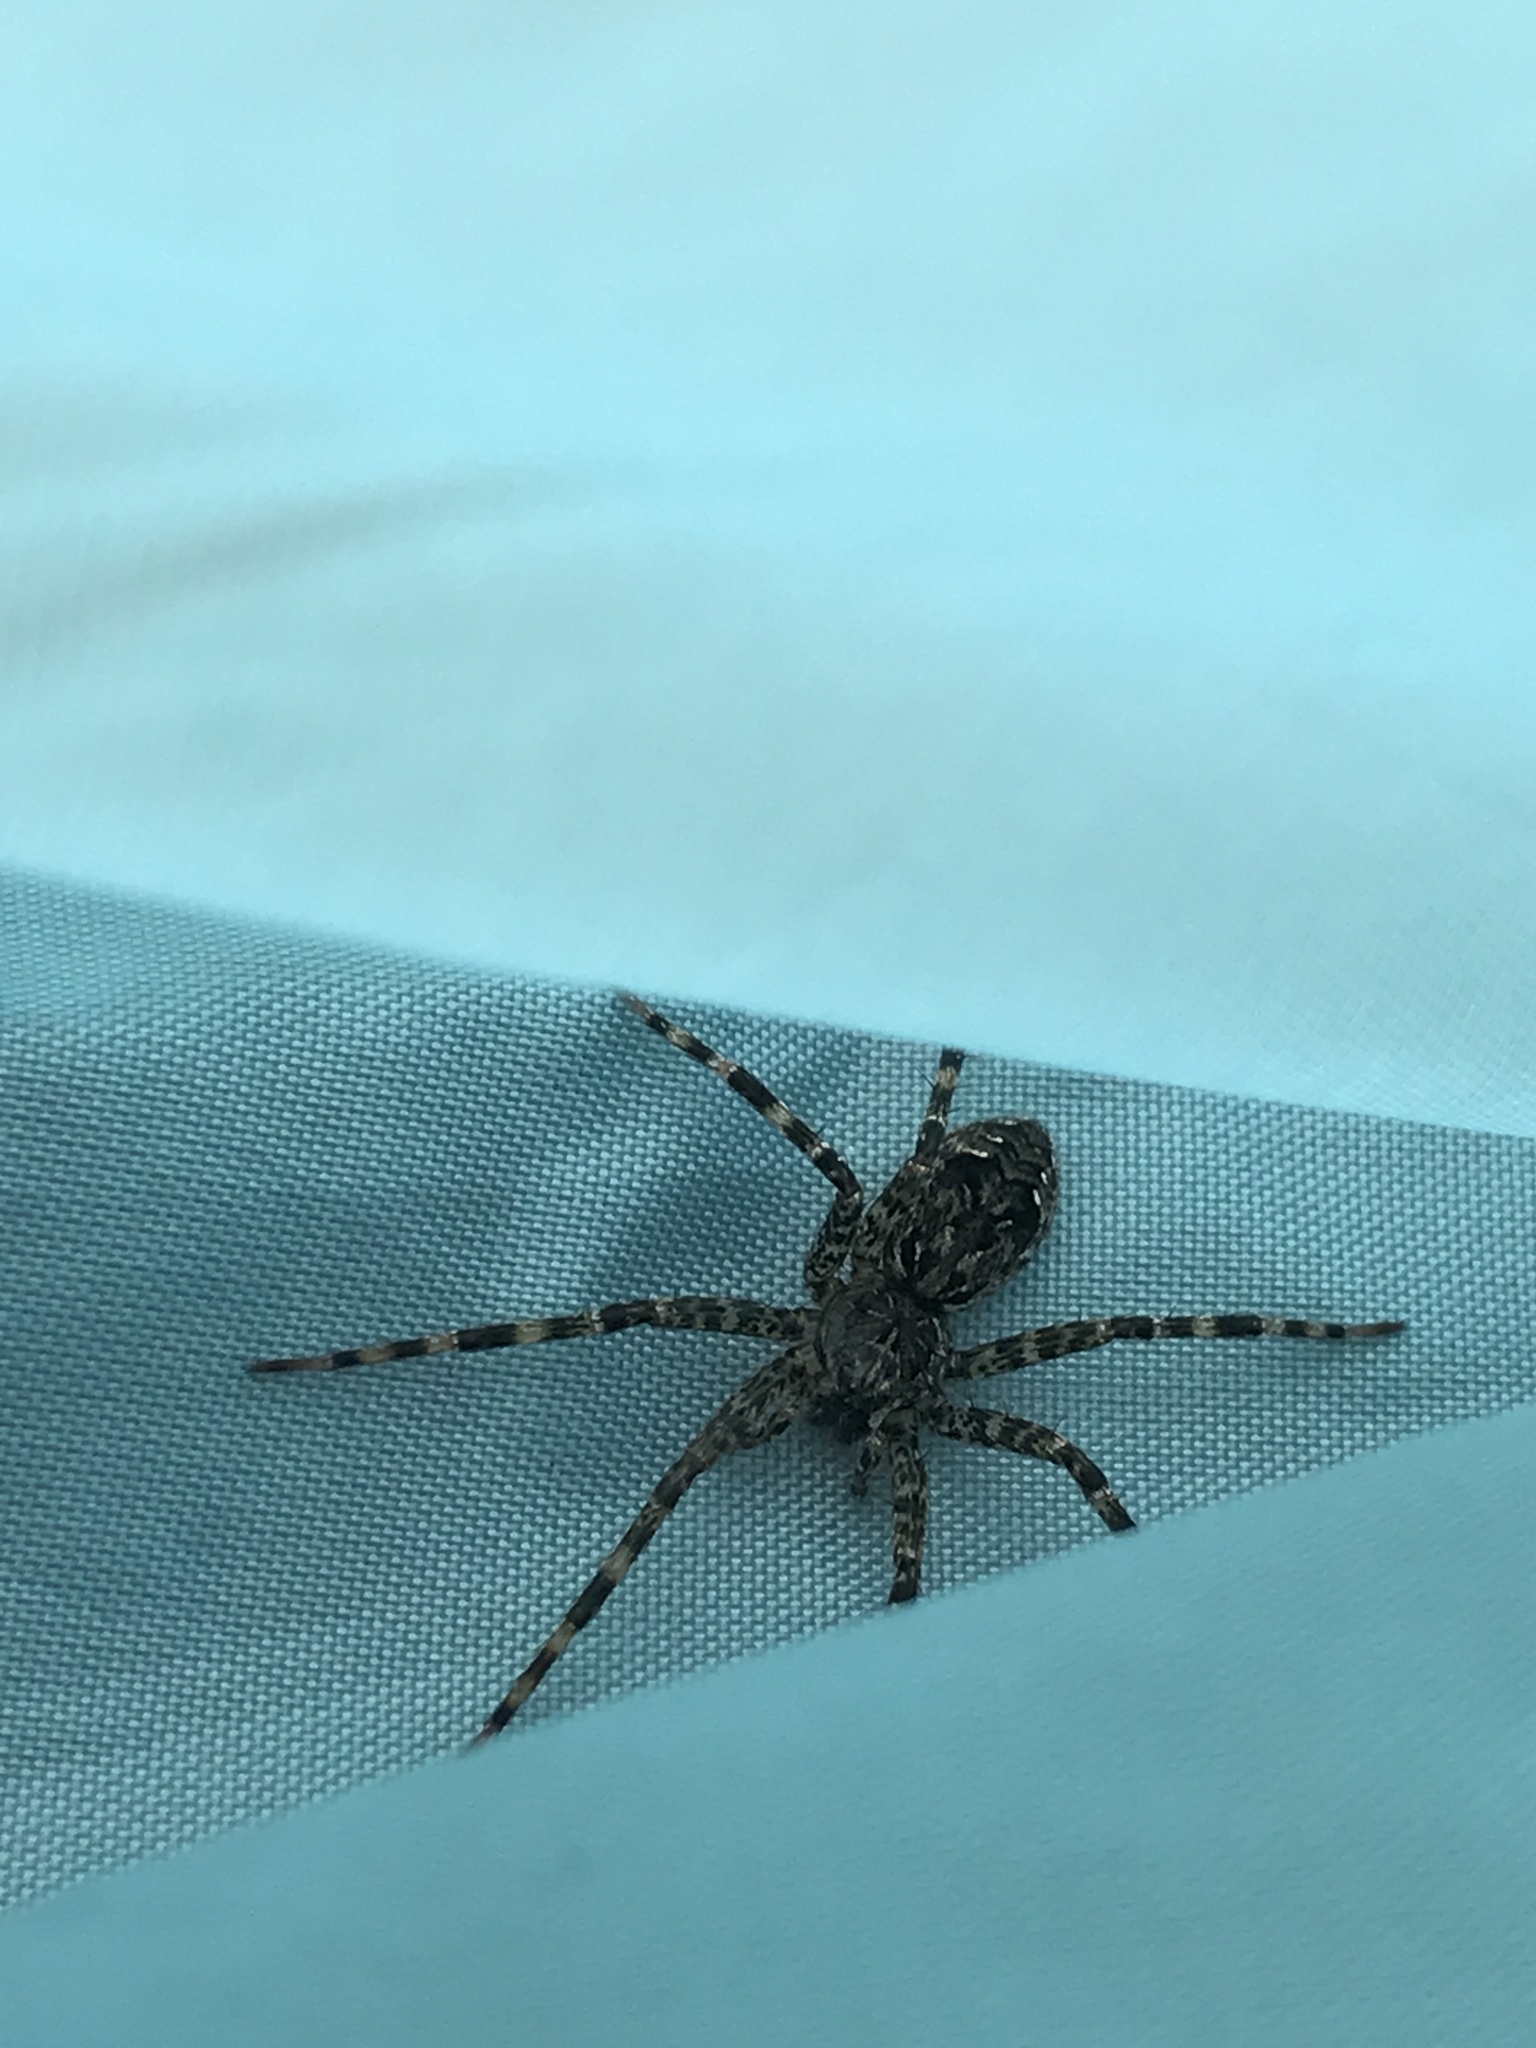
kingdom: Animalia
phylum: Arthropoda
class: Arachnida
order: Araneae
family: Pisauridae
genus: Dolomedes
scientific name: Dolomedes tenebrosus
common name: Dark fishing spider
